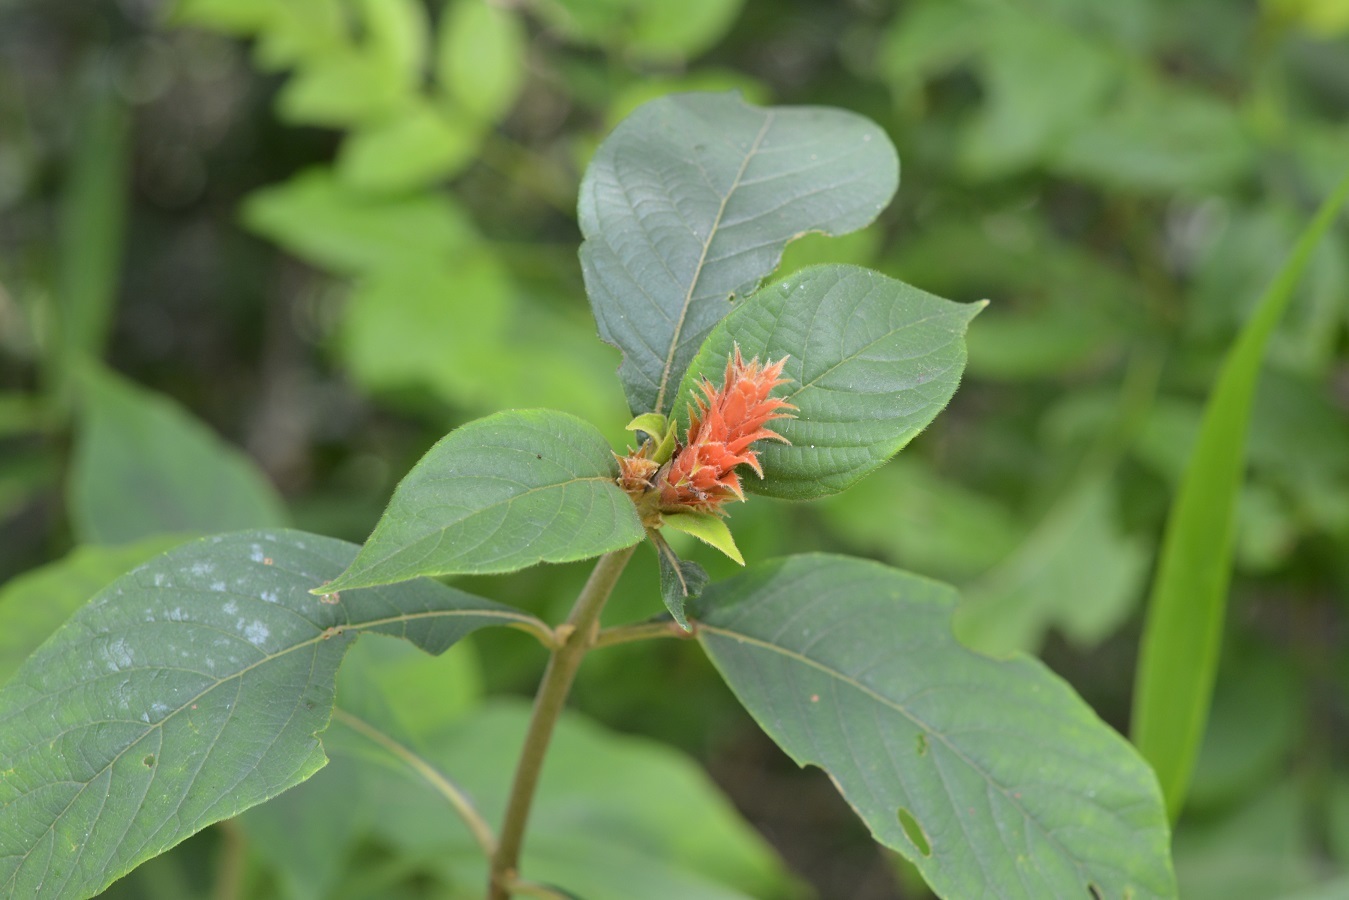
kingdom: Plantae
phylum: Tracheophyta
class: Magnoliopsida
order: Lamiales
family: Acanthaceae
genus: Aphelandra
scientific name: Aphelandra scabra
